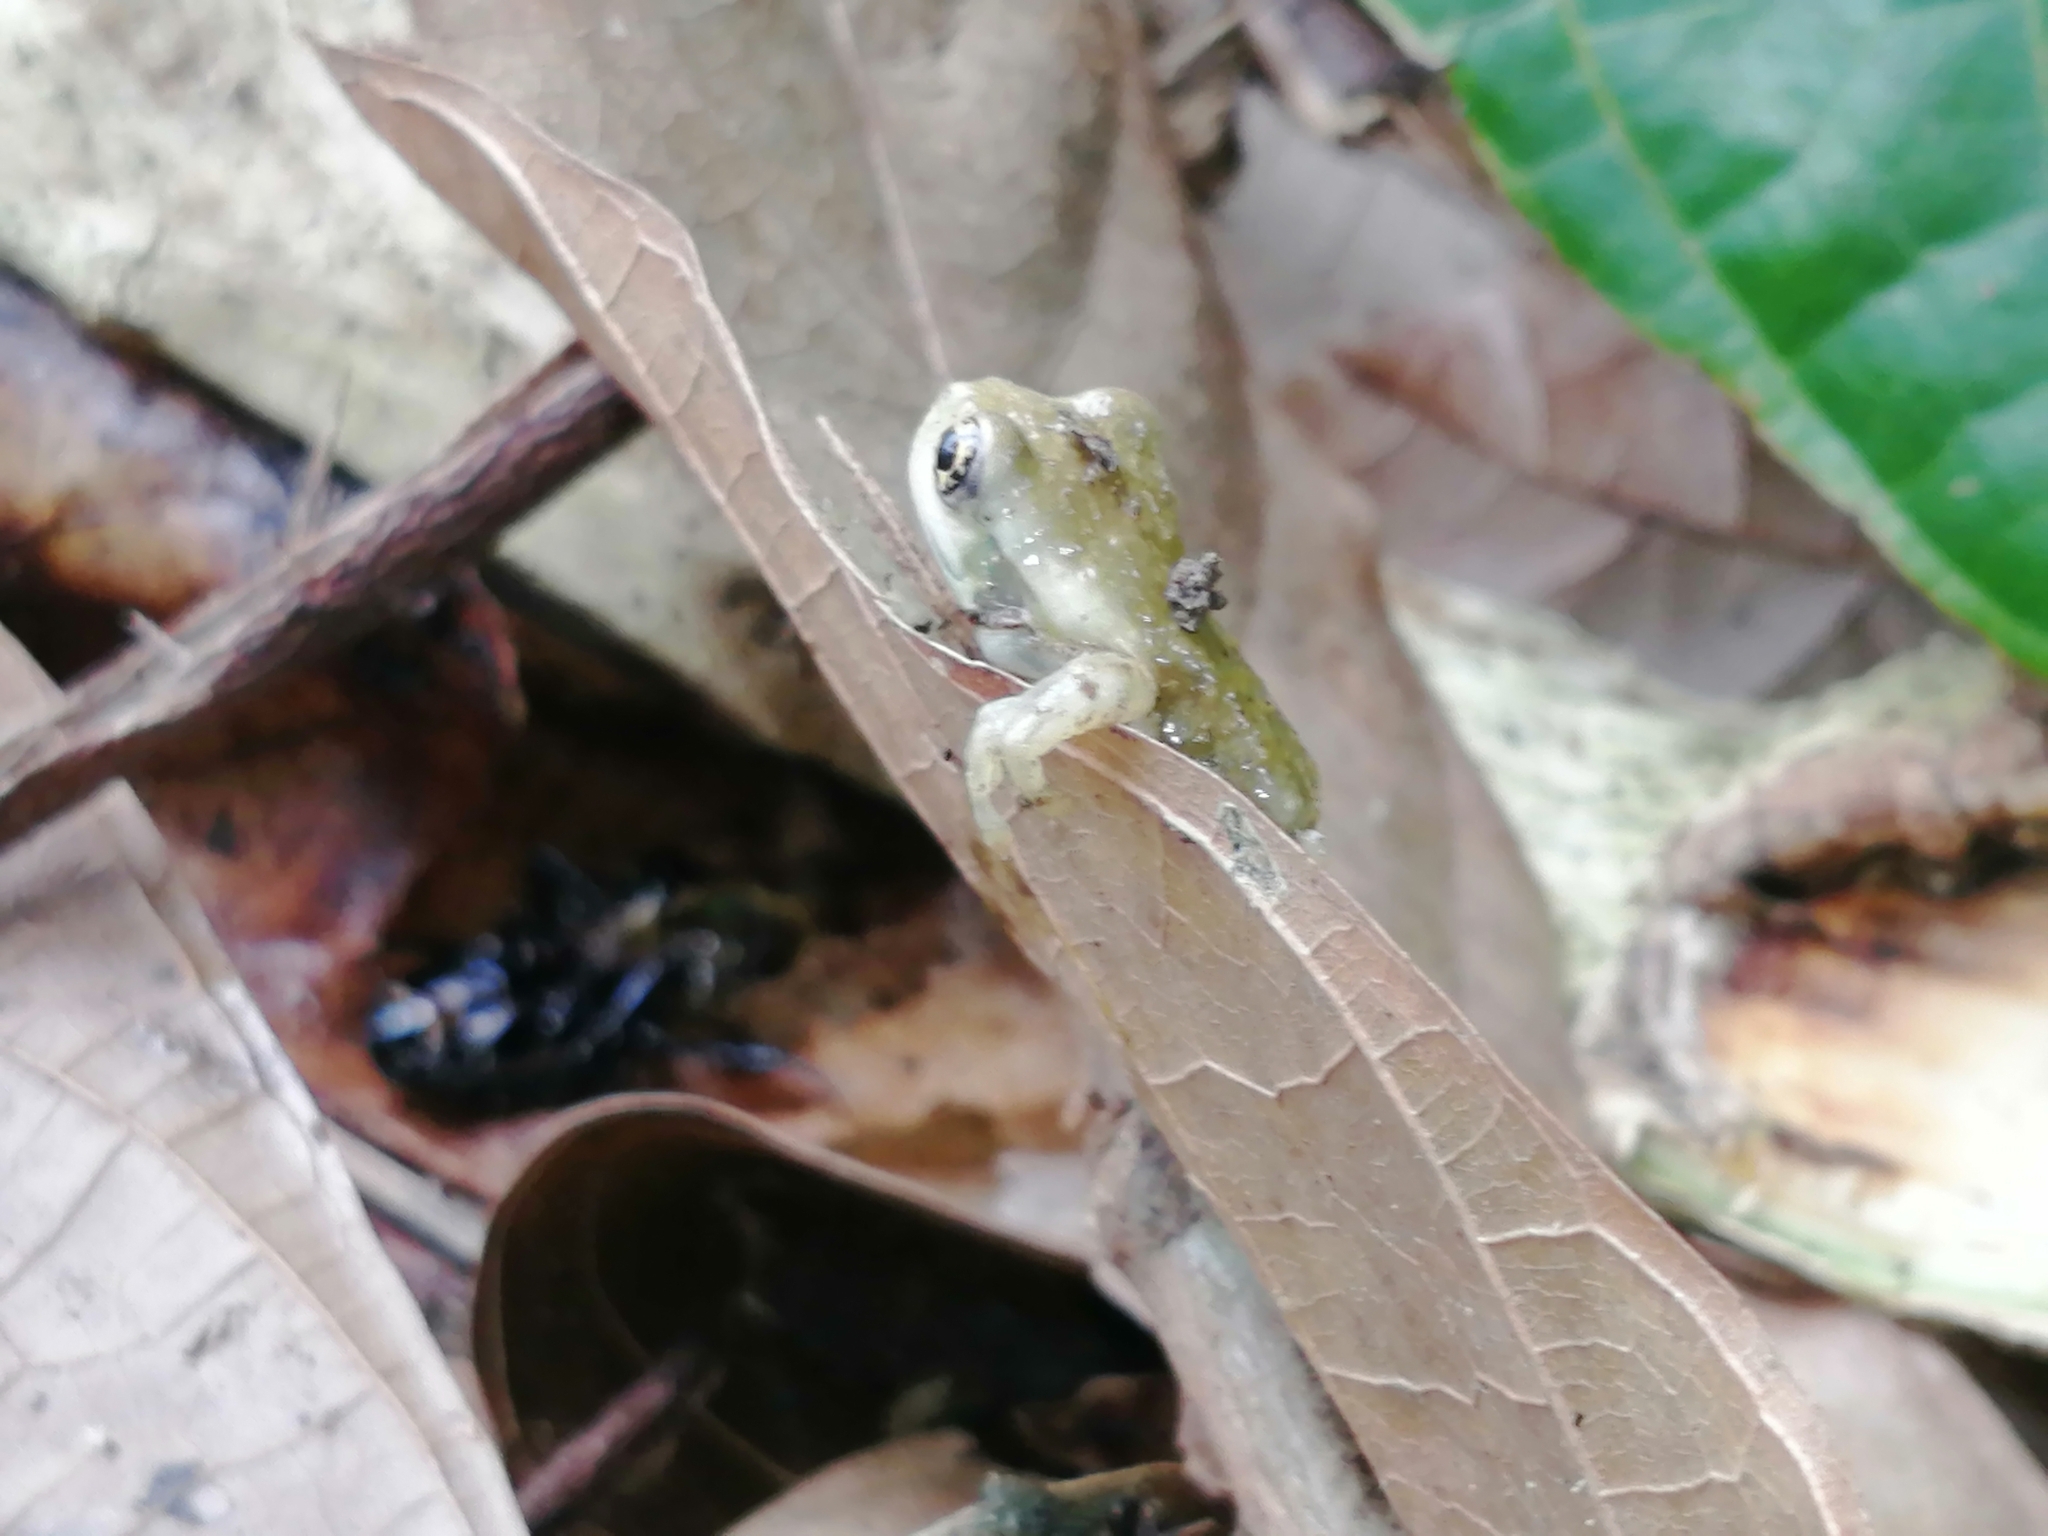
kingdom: Animalia
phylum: Chordata
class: Amphibia
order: Anura
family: Hylidae
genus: Trachycephalus
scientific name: Trachycephalus vermiculatus
